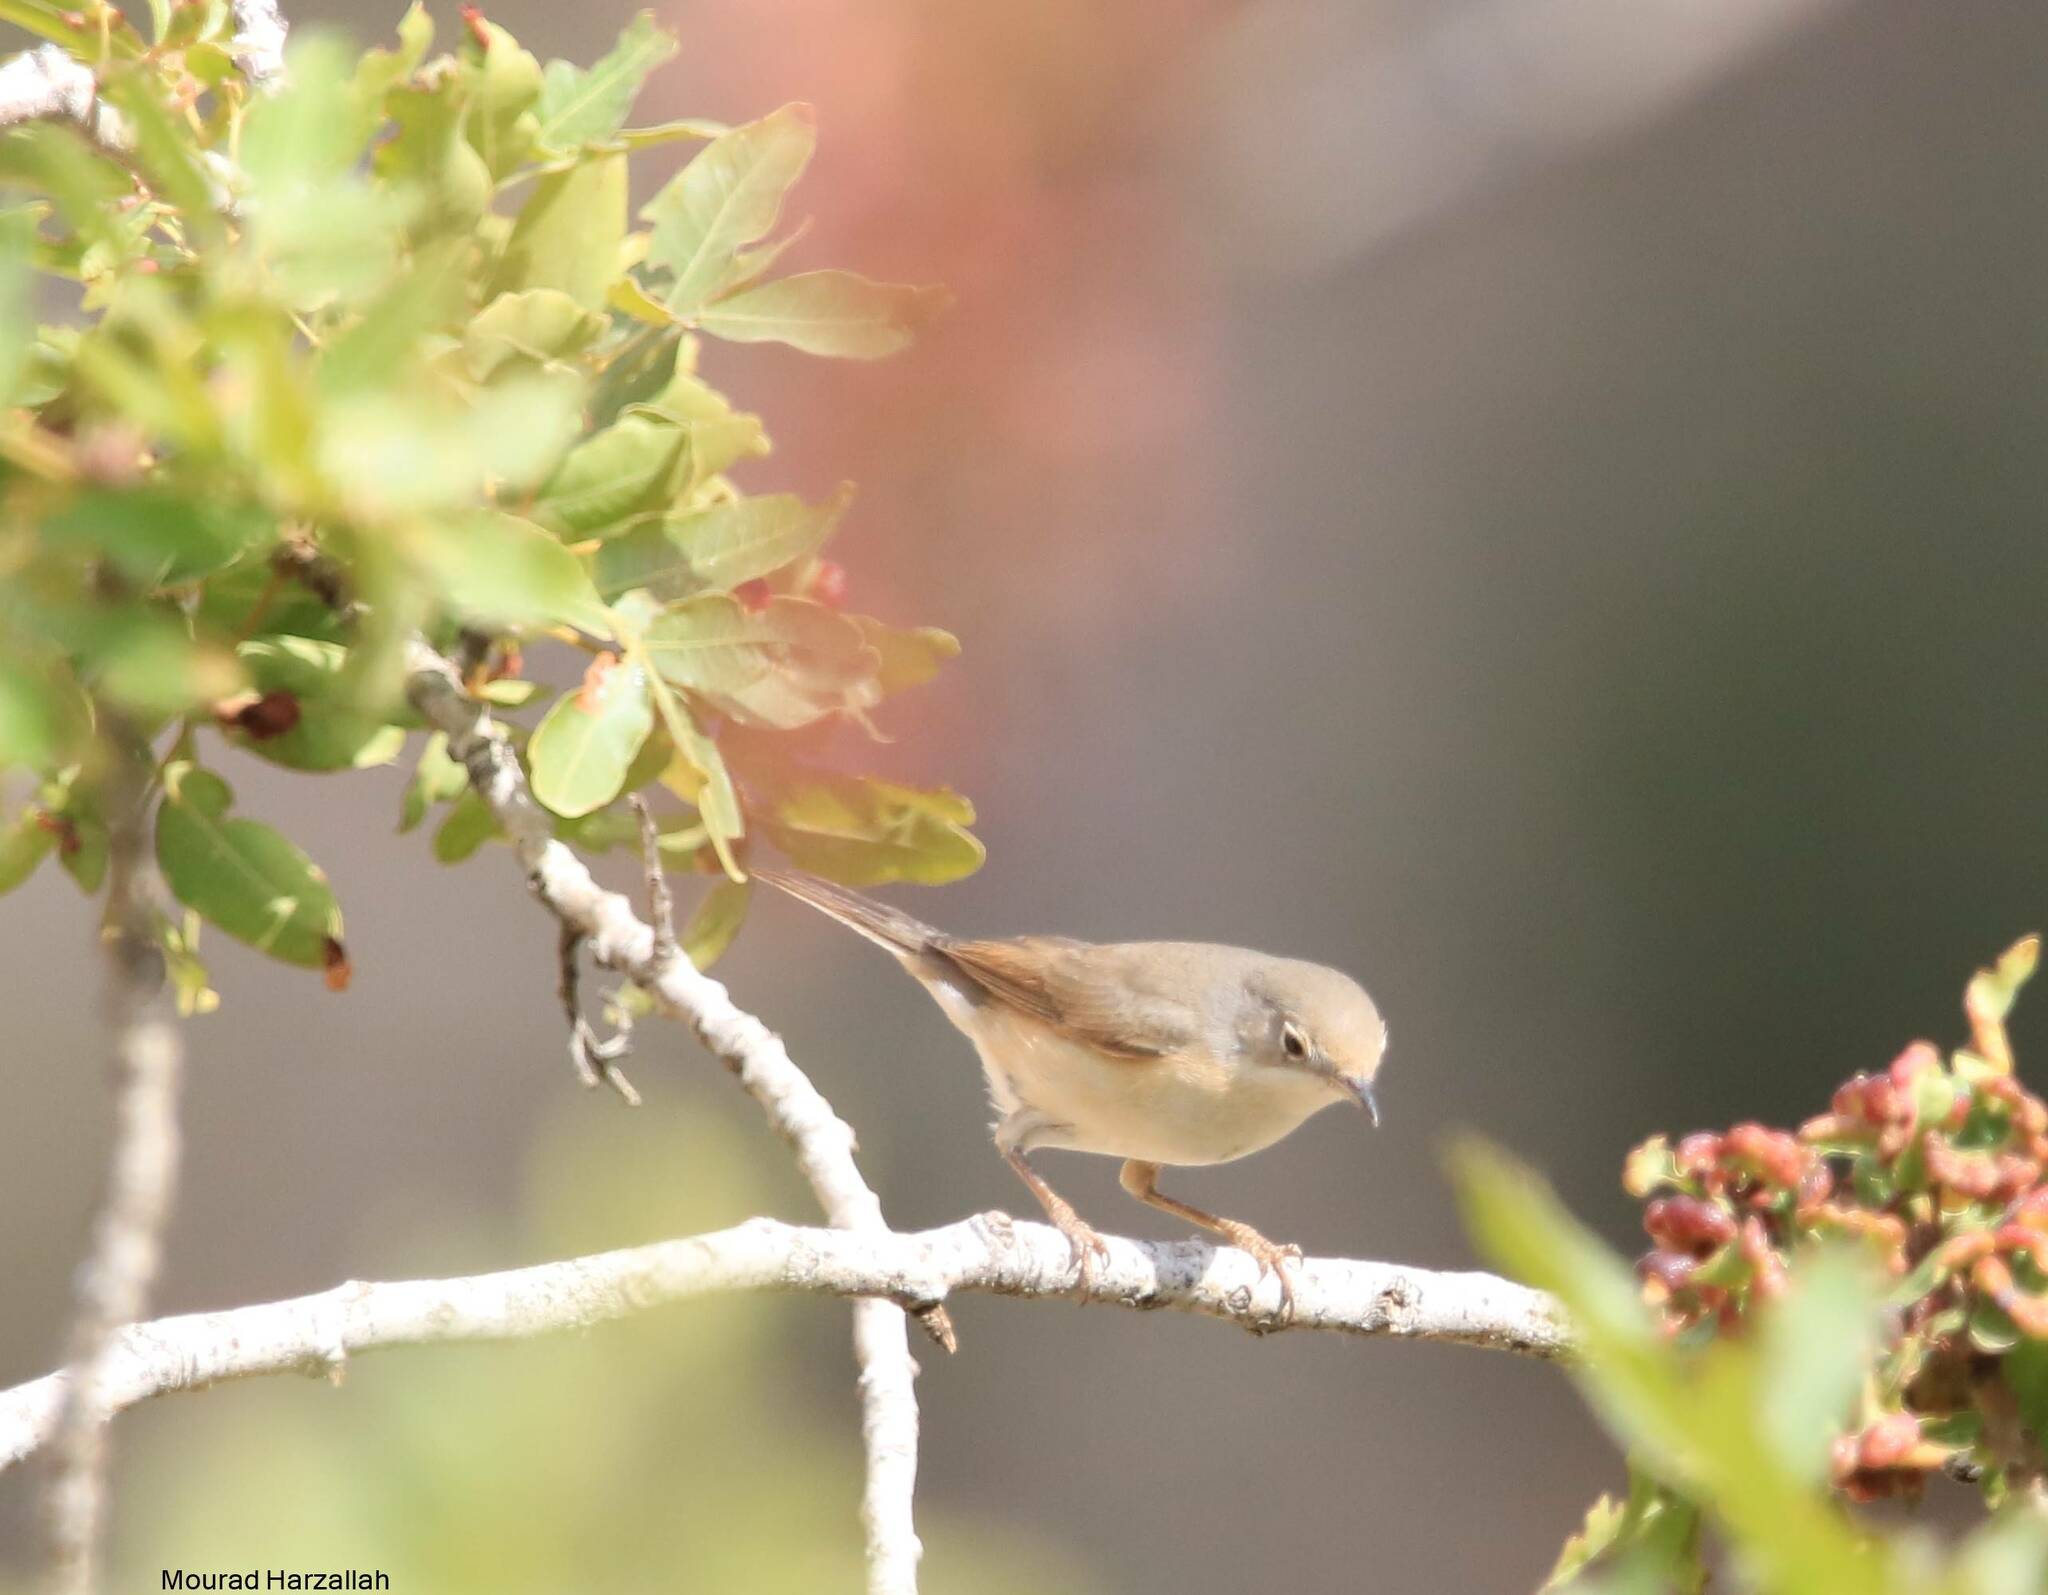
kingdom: Animalia
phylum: Chordata
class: Aves
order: Passeriformes
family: Sylviidae
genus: Sylvia
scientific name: Sylvia communis
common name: Common whitethroat
